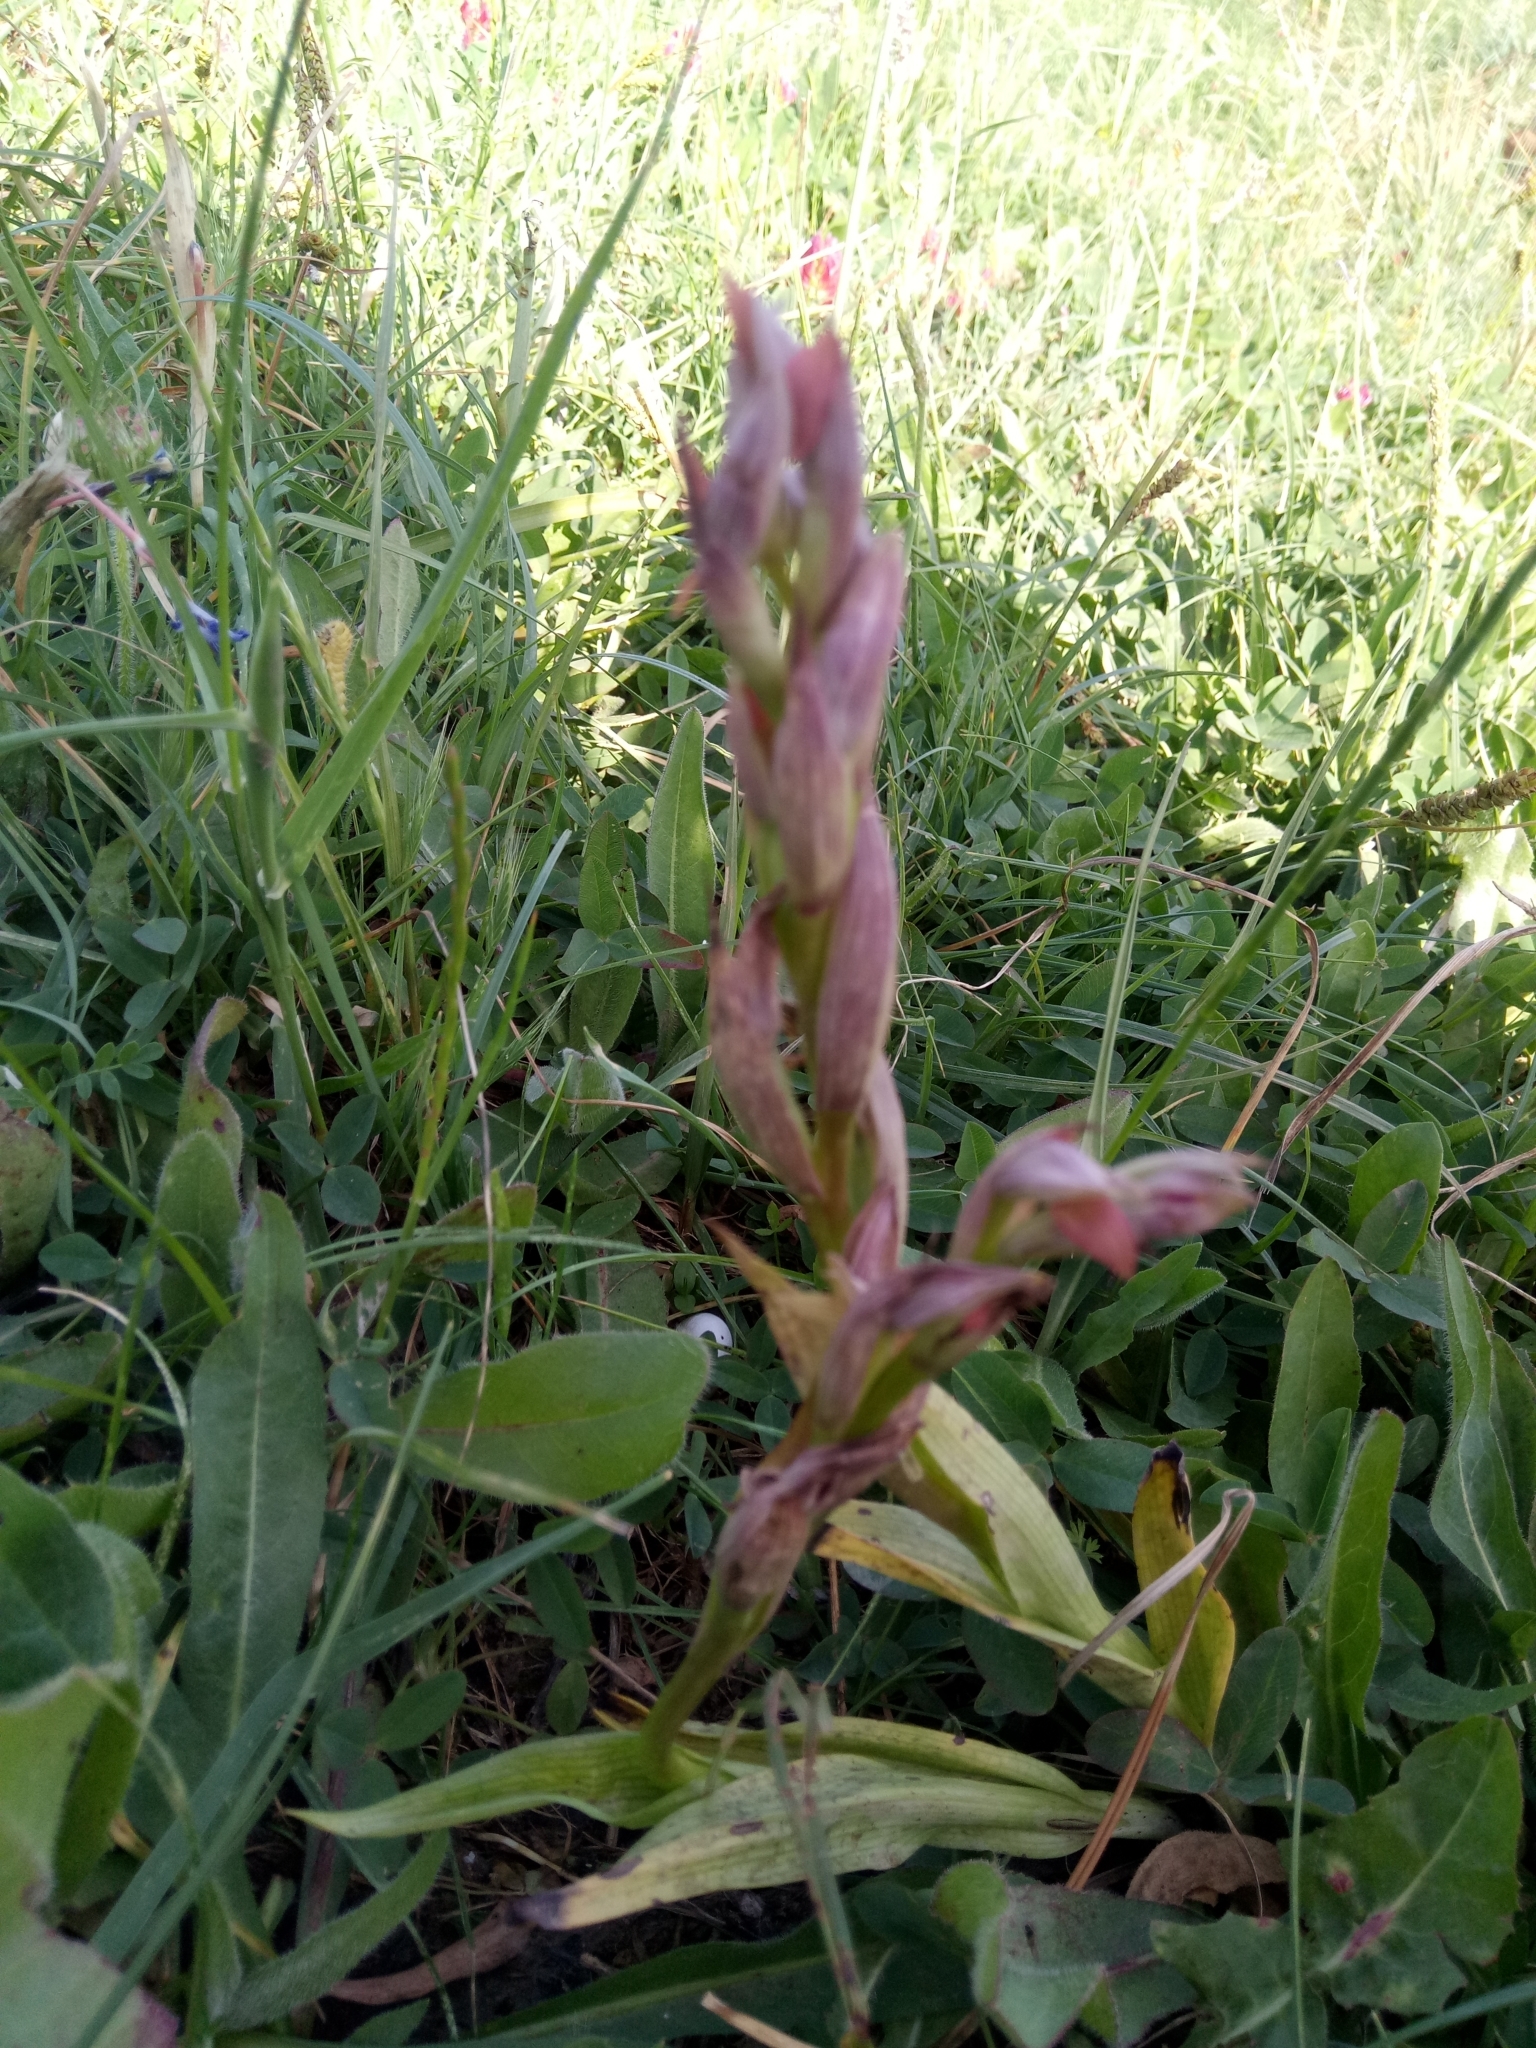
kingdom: Plantae
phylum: Tracheophyta
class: Liliopsida
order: Asparagales
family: Orchidaceae
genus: Serapias
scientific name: Serapias parviflora
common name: Small-flowered tongue-orchid
